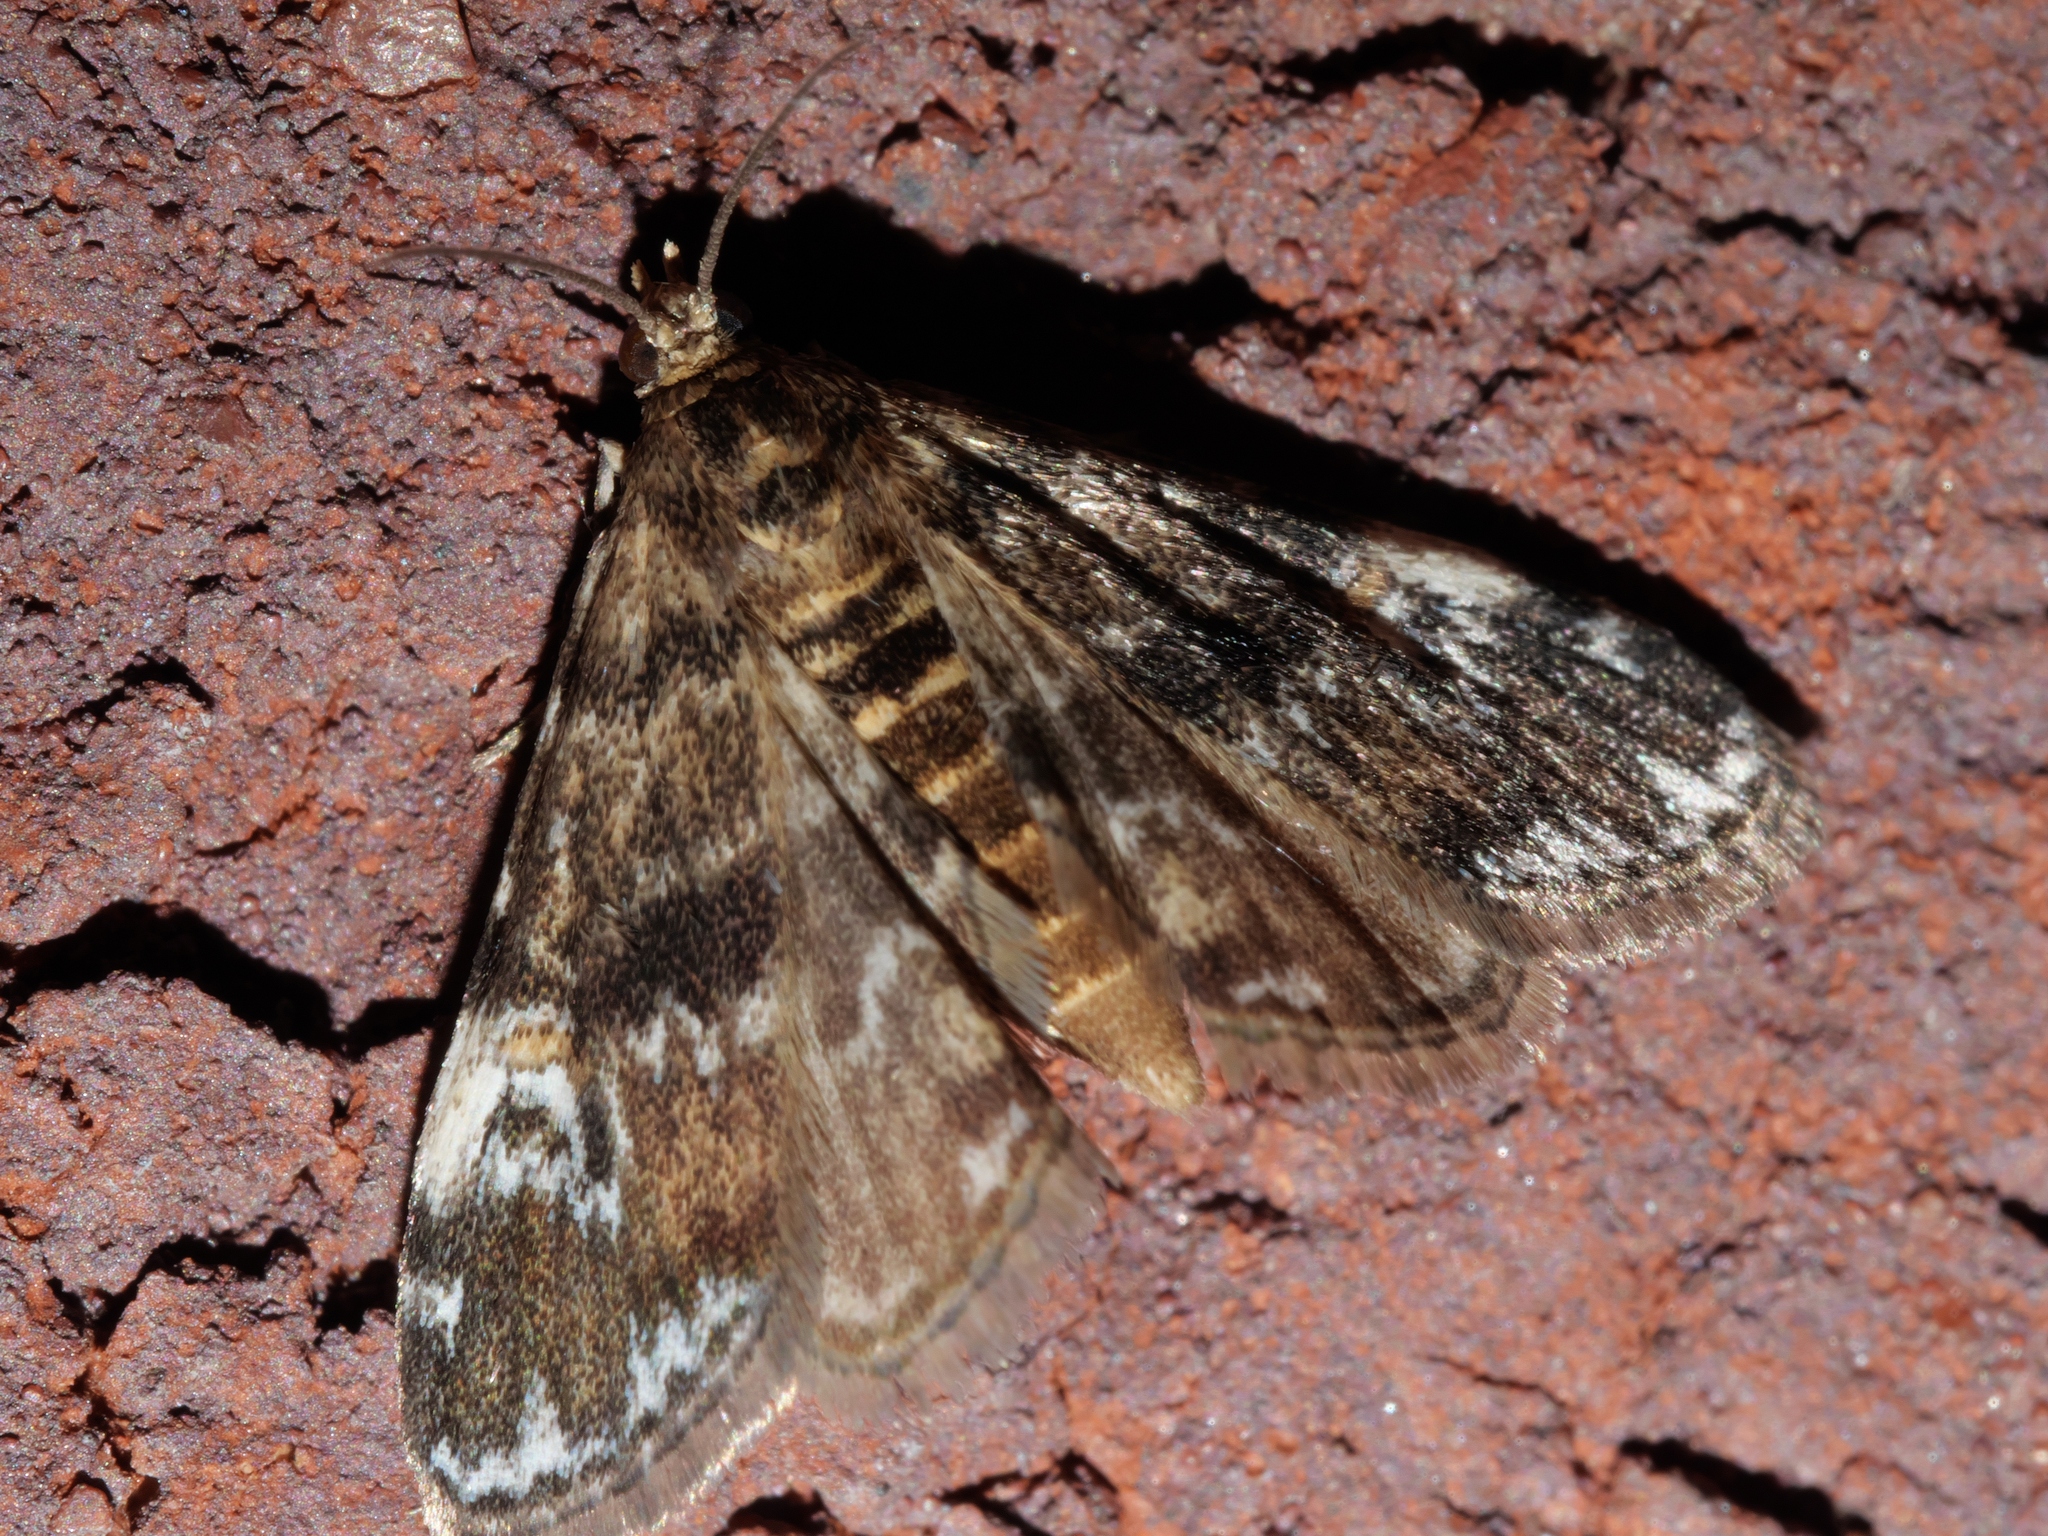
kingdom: Animalia
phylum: Arthropoda
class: Insecta
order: Lepidoptera
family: Crambidae
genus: Elophila
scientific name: Elophila obliteralis
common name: Waterlily leafcutter moth
